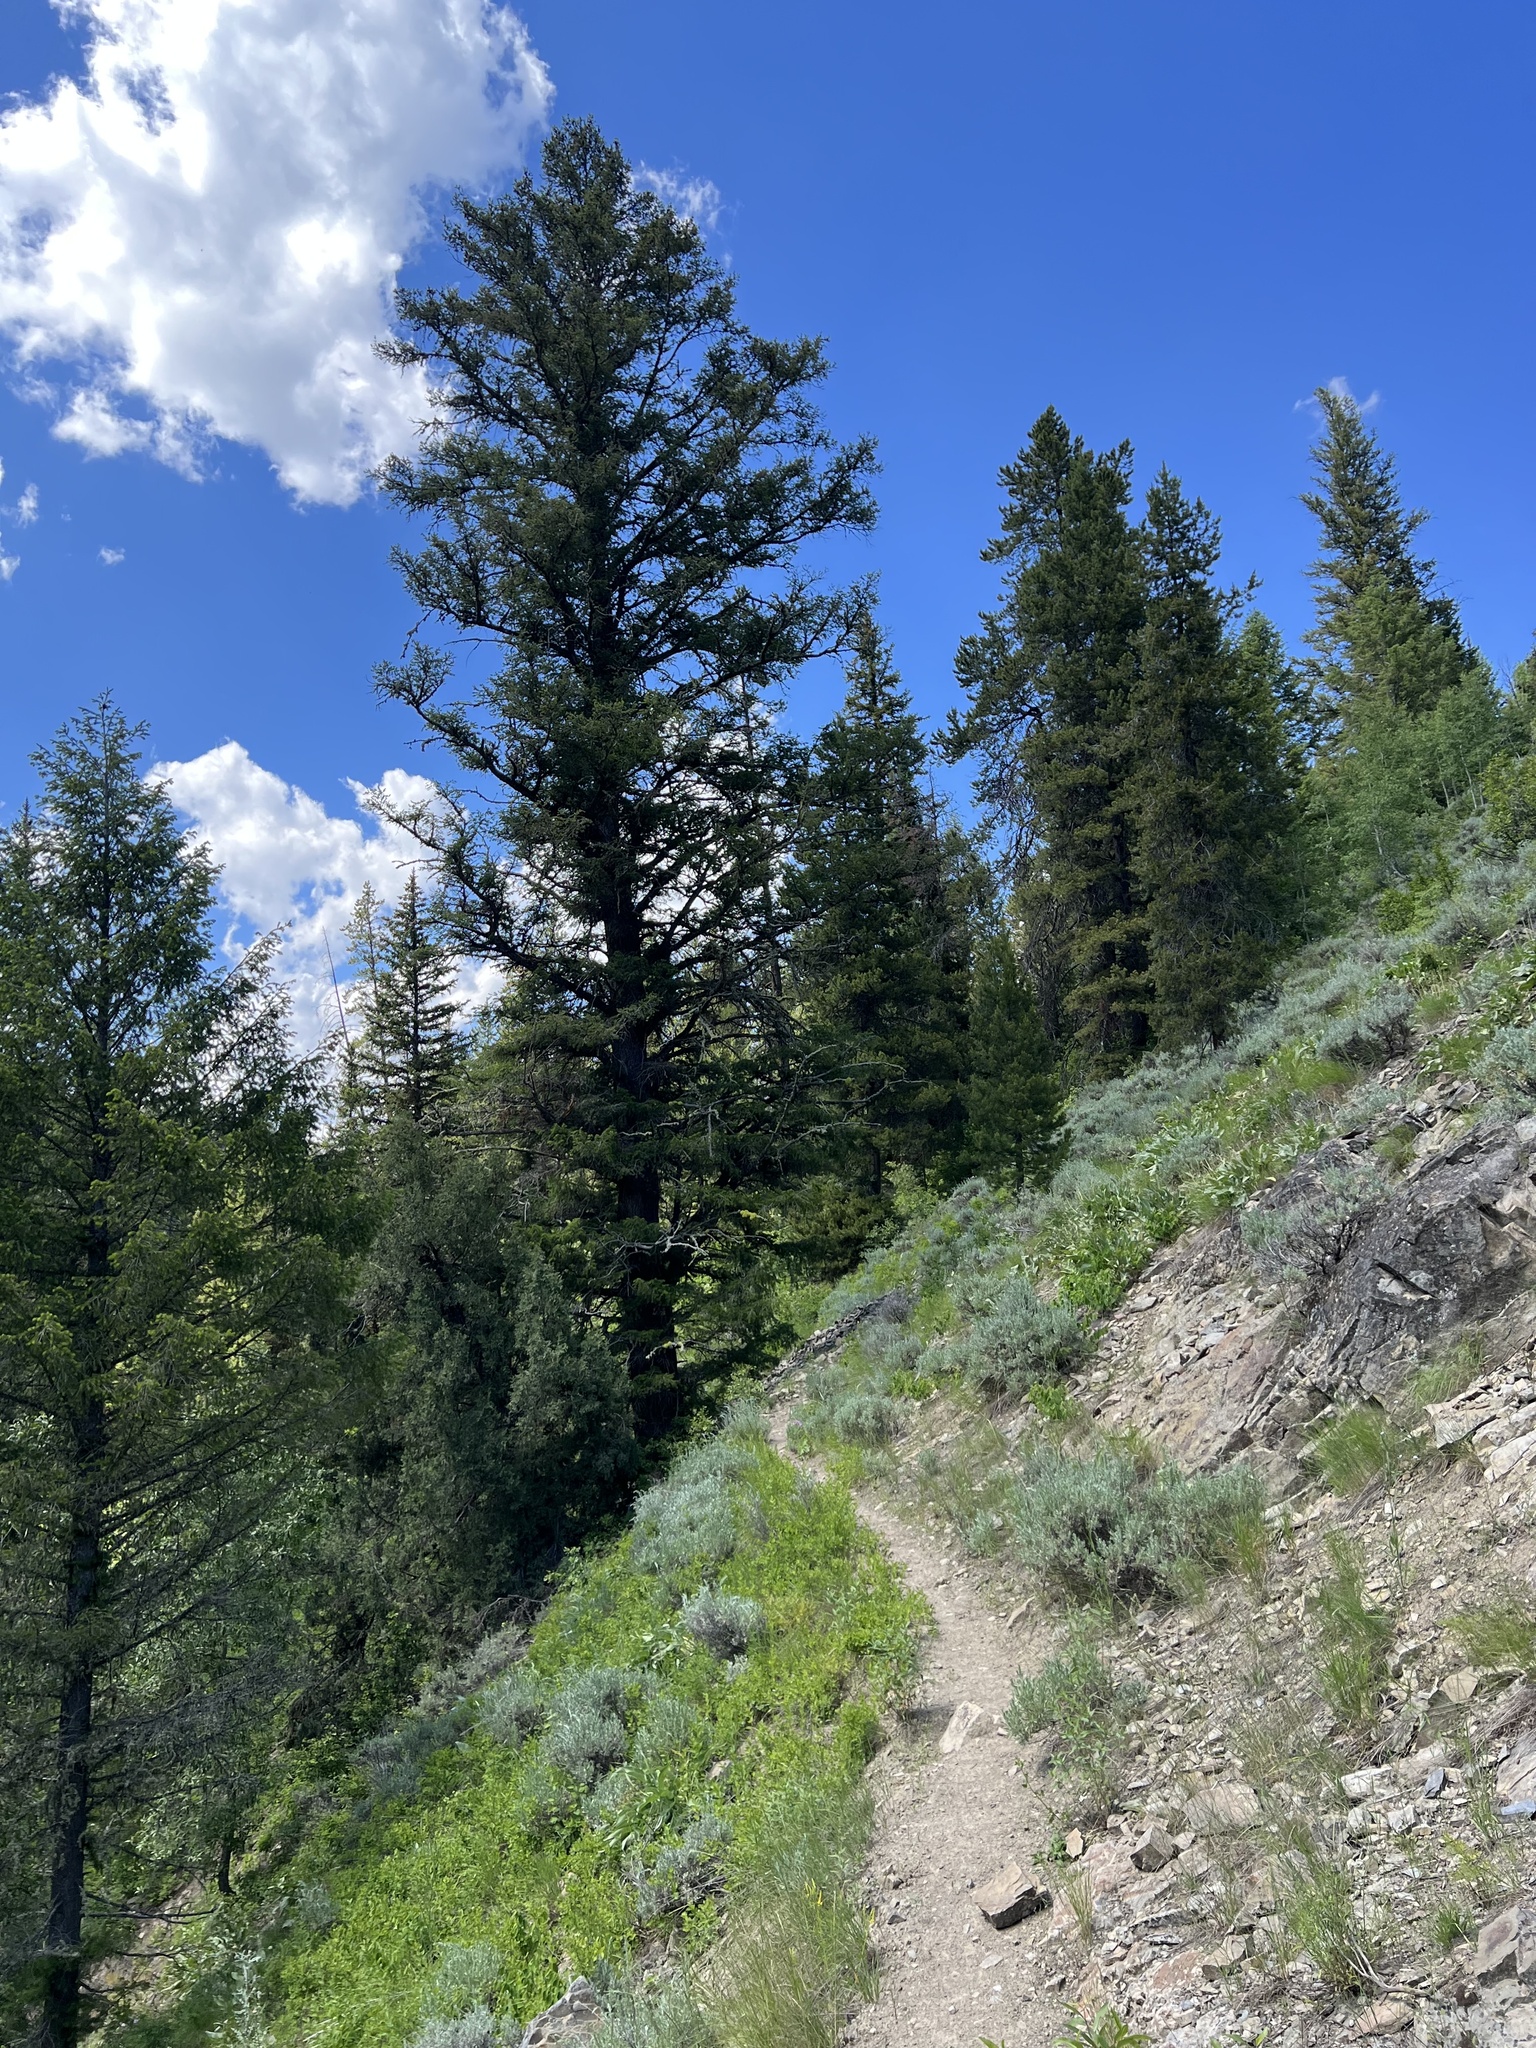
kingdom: Plantae
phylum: Tracheophyta
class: Pinopsida
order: Pinales
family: Pinaceae
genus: Pseudotsuga
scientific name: Pseudotsuga menziesii
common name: Douglas fir
